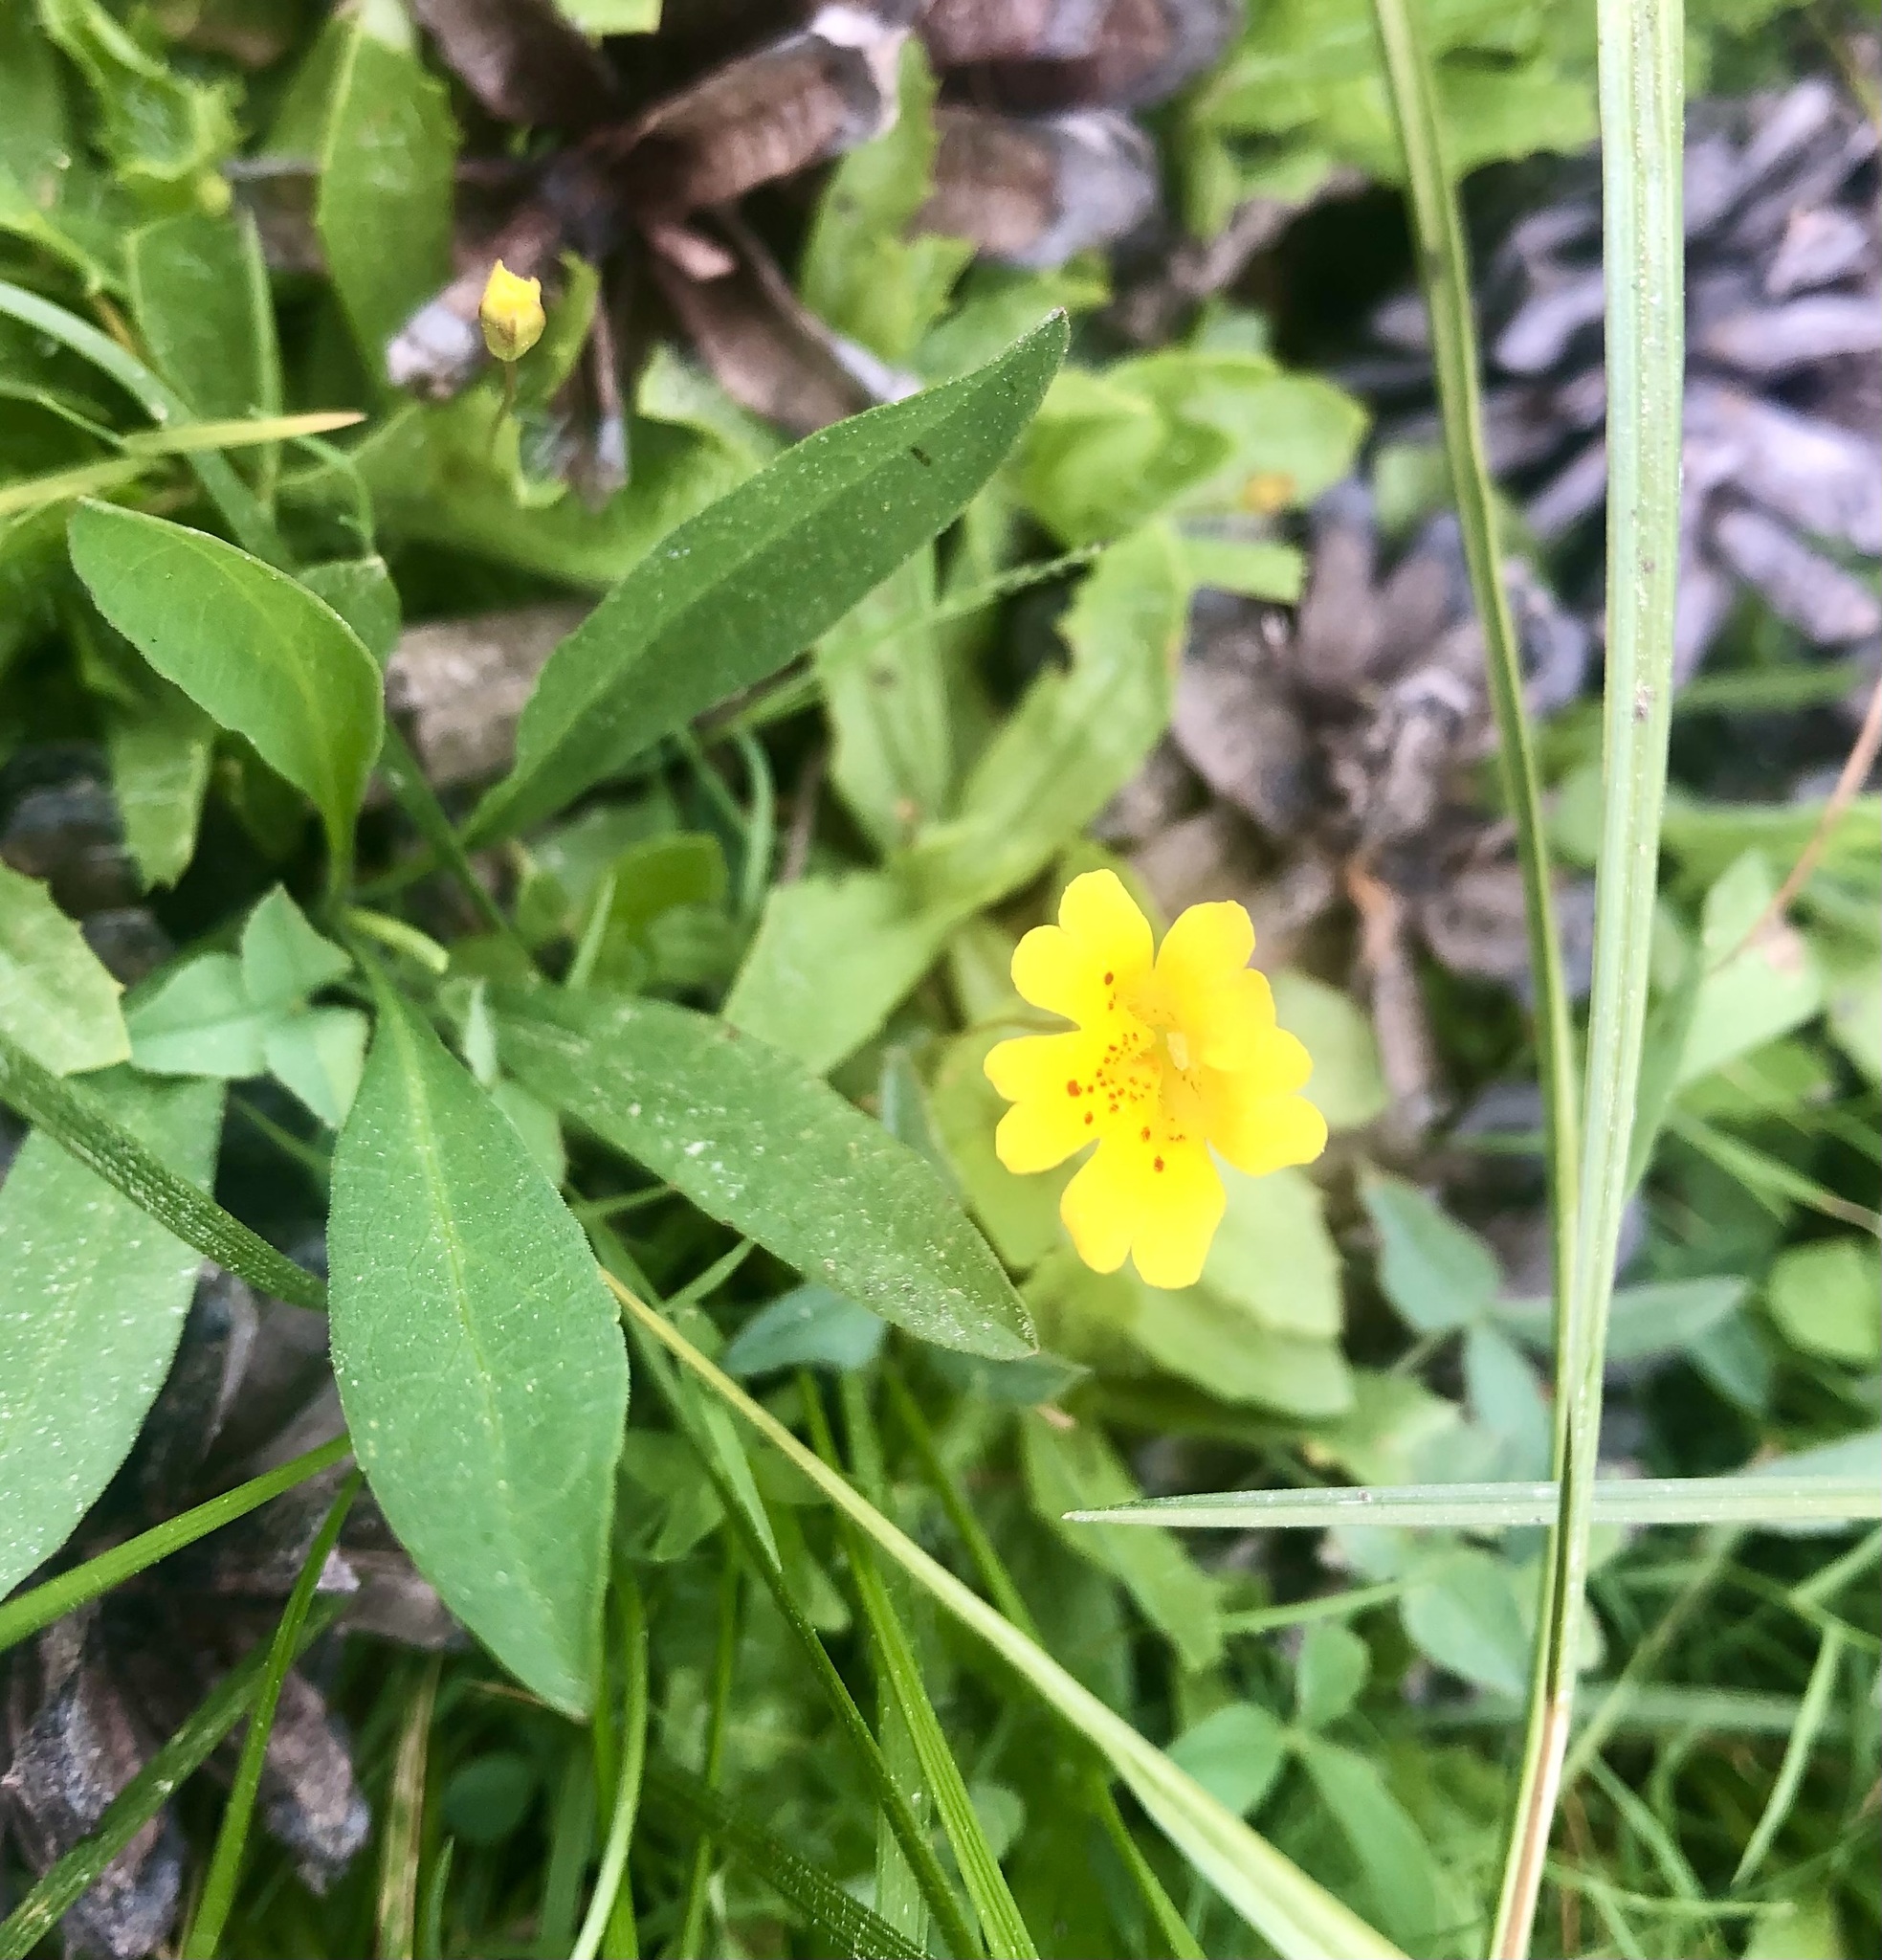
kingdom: Plantae
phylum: Tracheophyta
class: Magnoliopsida
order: Lamiales
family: Phrymaceae
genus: Erythranthe
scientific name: Erythranthe primuloides
